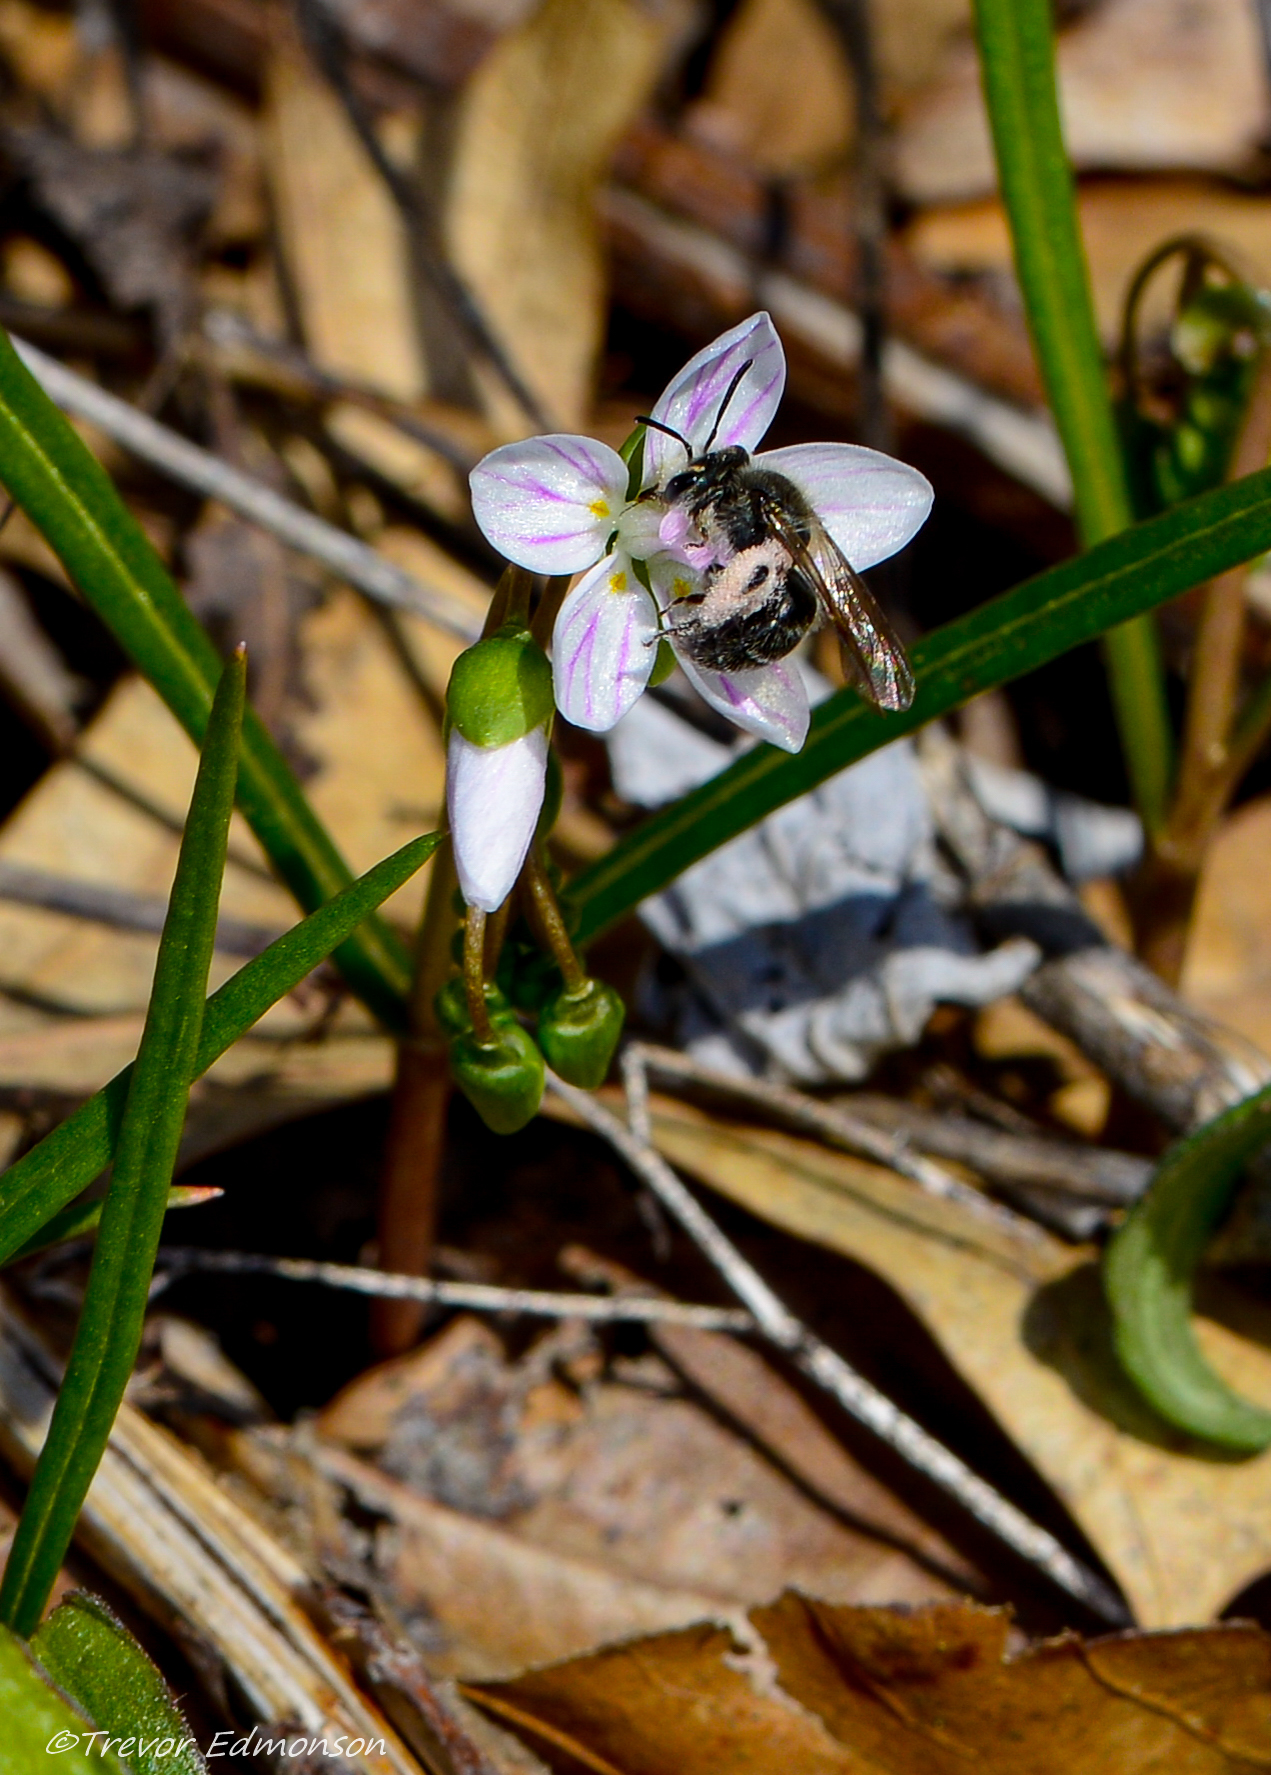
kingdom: Animalia
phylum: Arthropoda
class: Insecta
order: Hymenoptera
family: Andrenidae
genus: Andrena
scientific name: Andrena erigeniae
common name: Spring beauty miner
